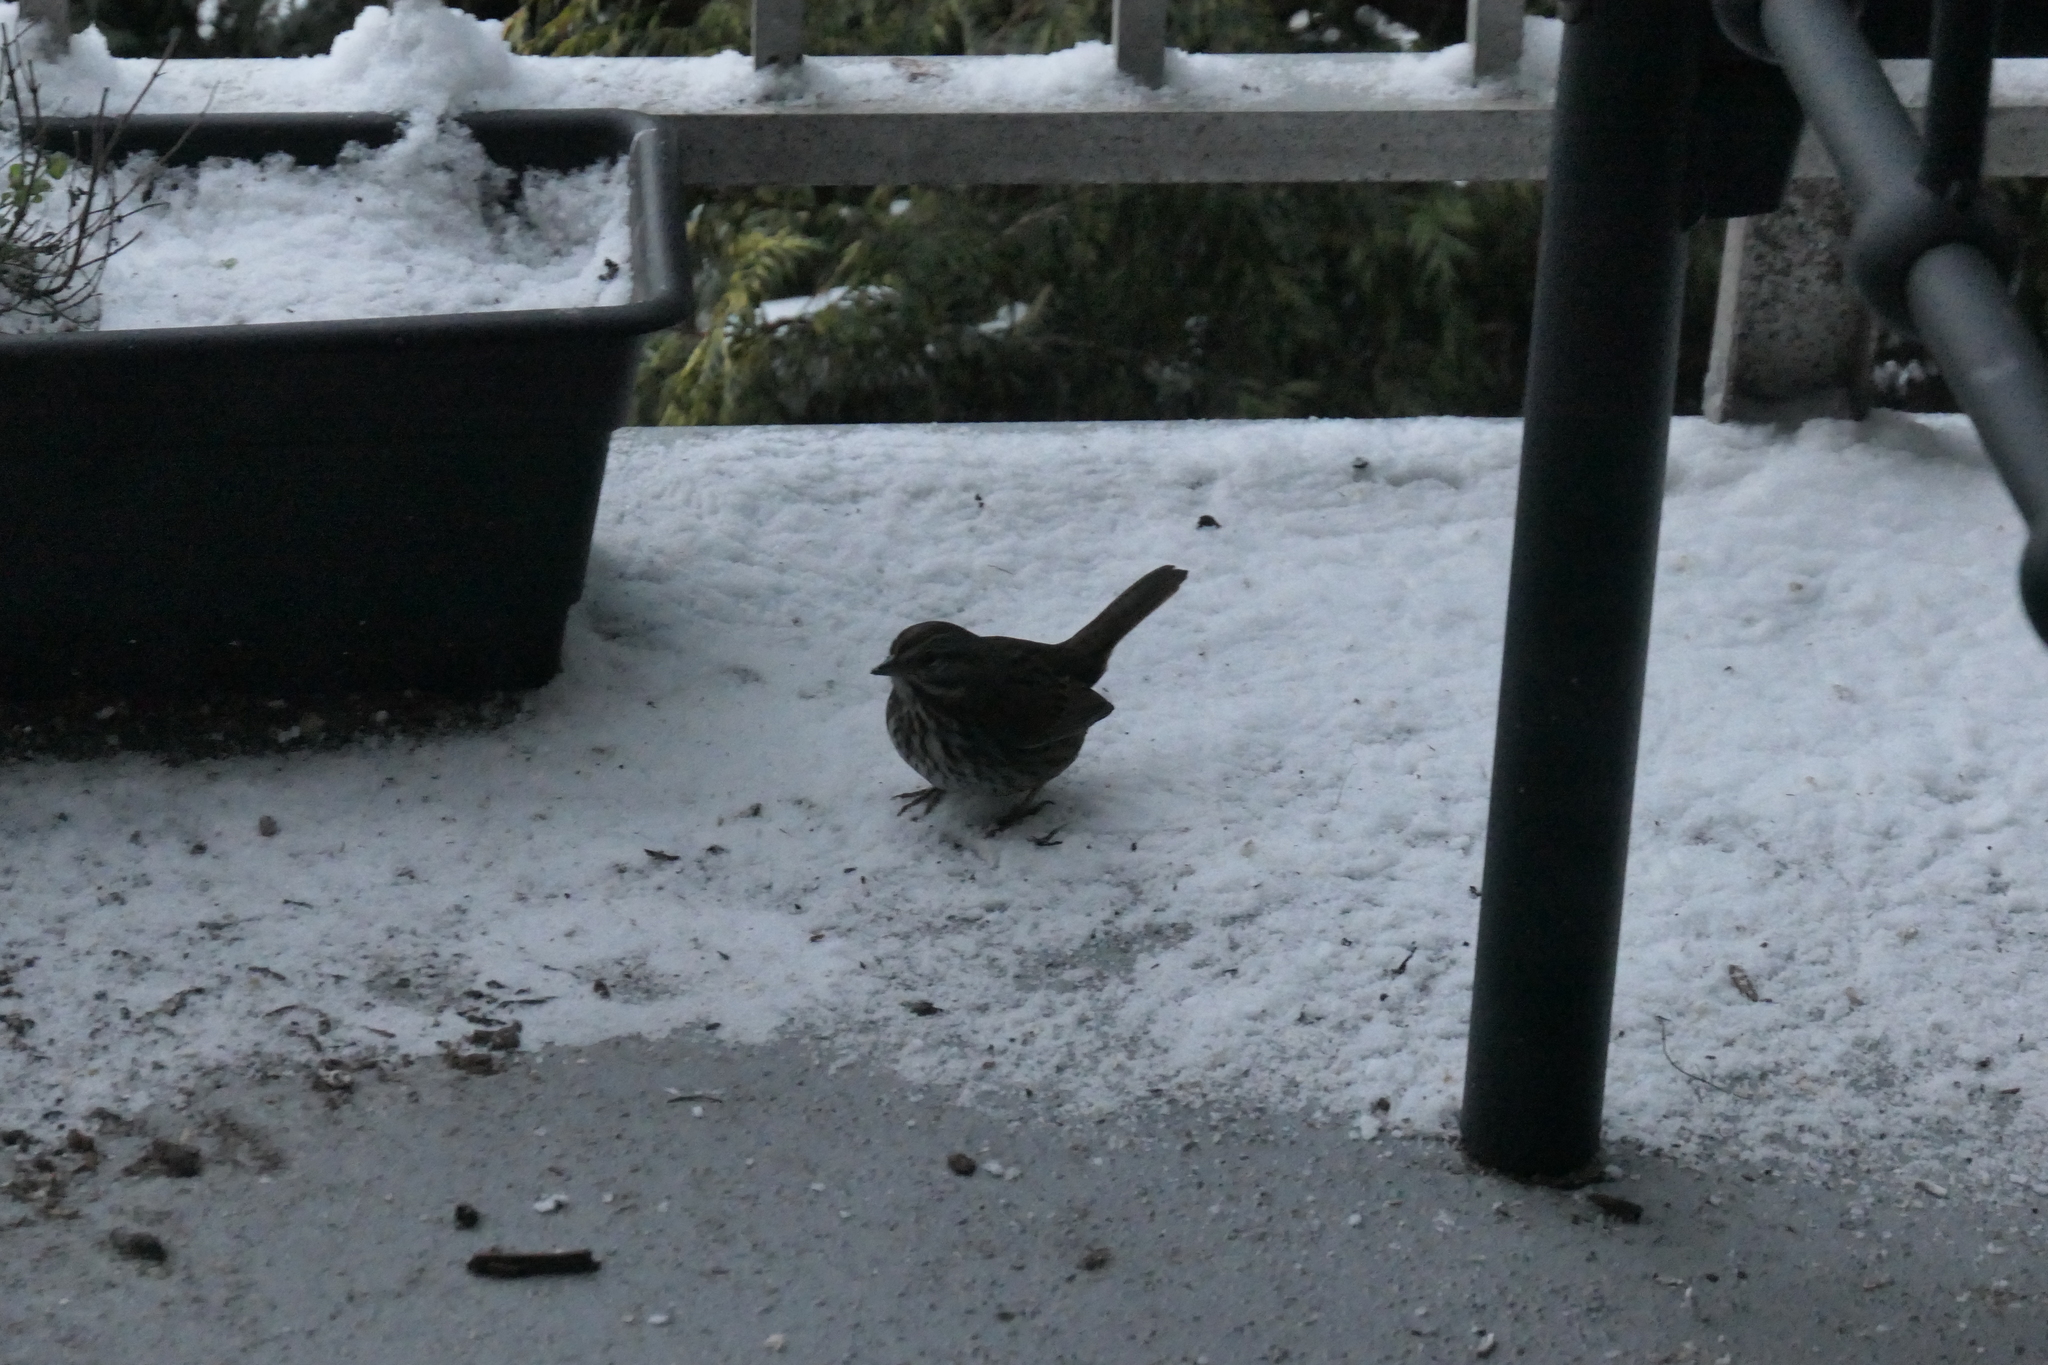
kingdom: Animalia
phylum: Chordata
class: Aves
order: Passeriformes
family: Passerellidae
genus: Melospiza
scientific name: Melospiza melodia
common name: Song sparrow
